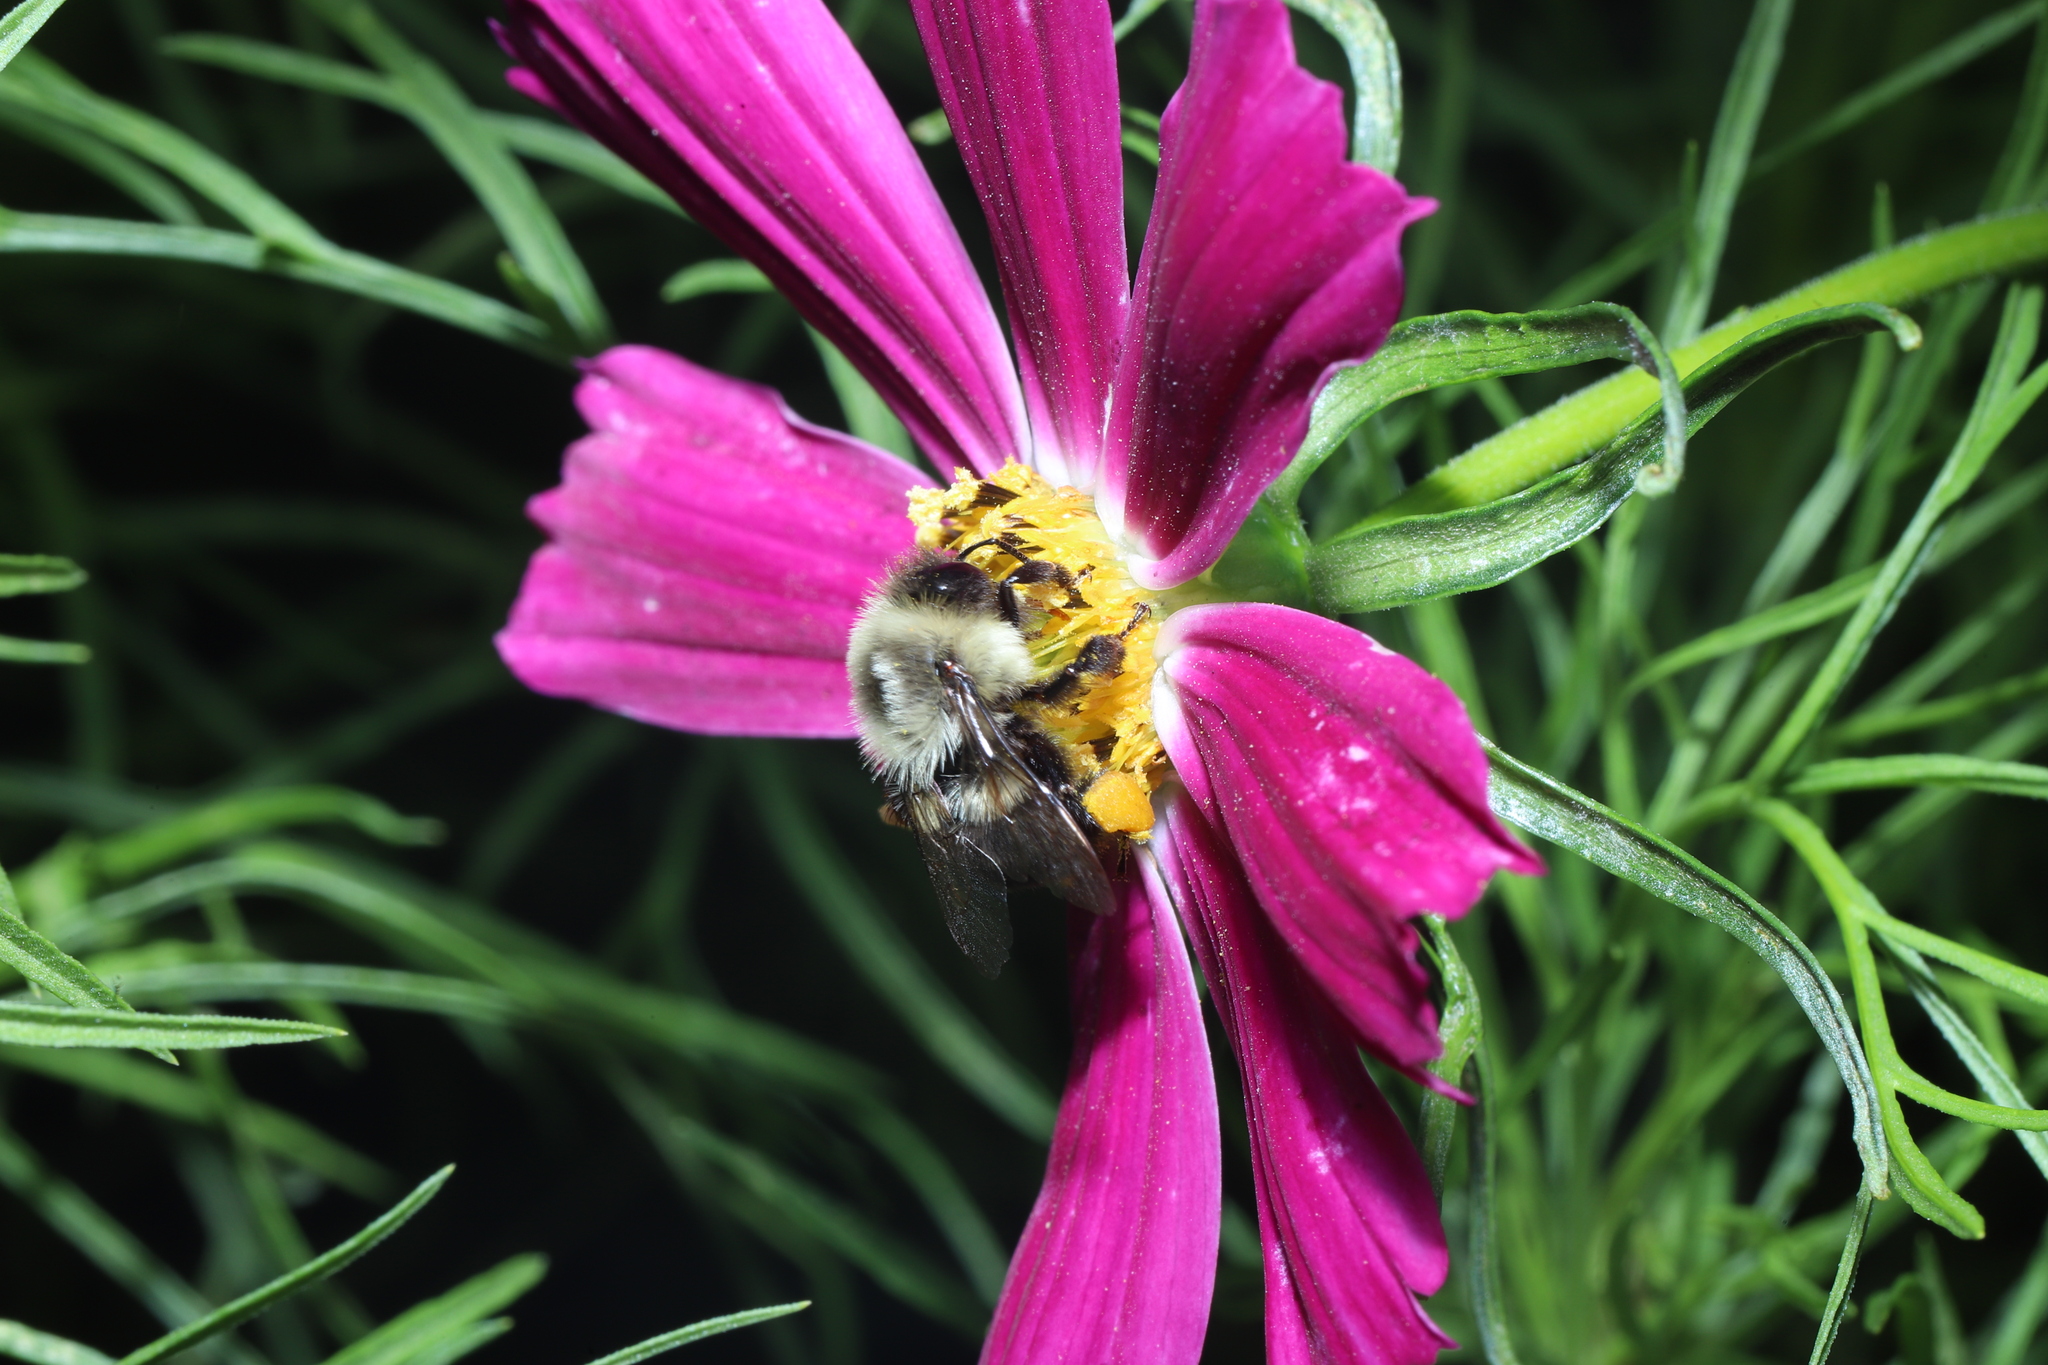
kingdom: Animalia
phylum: Arthropoda
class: Insecta
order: Hymenoptera
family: Apidae
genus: Bombus
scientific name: Bombus impatiens
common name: Common eastern bumble bee
